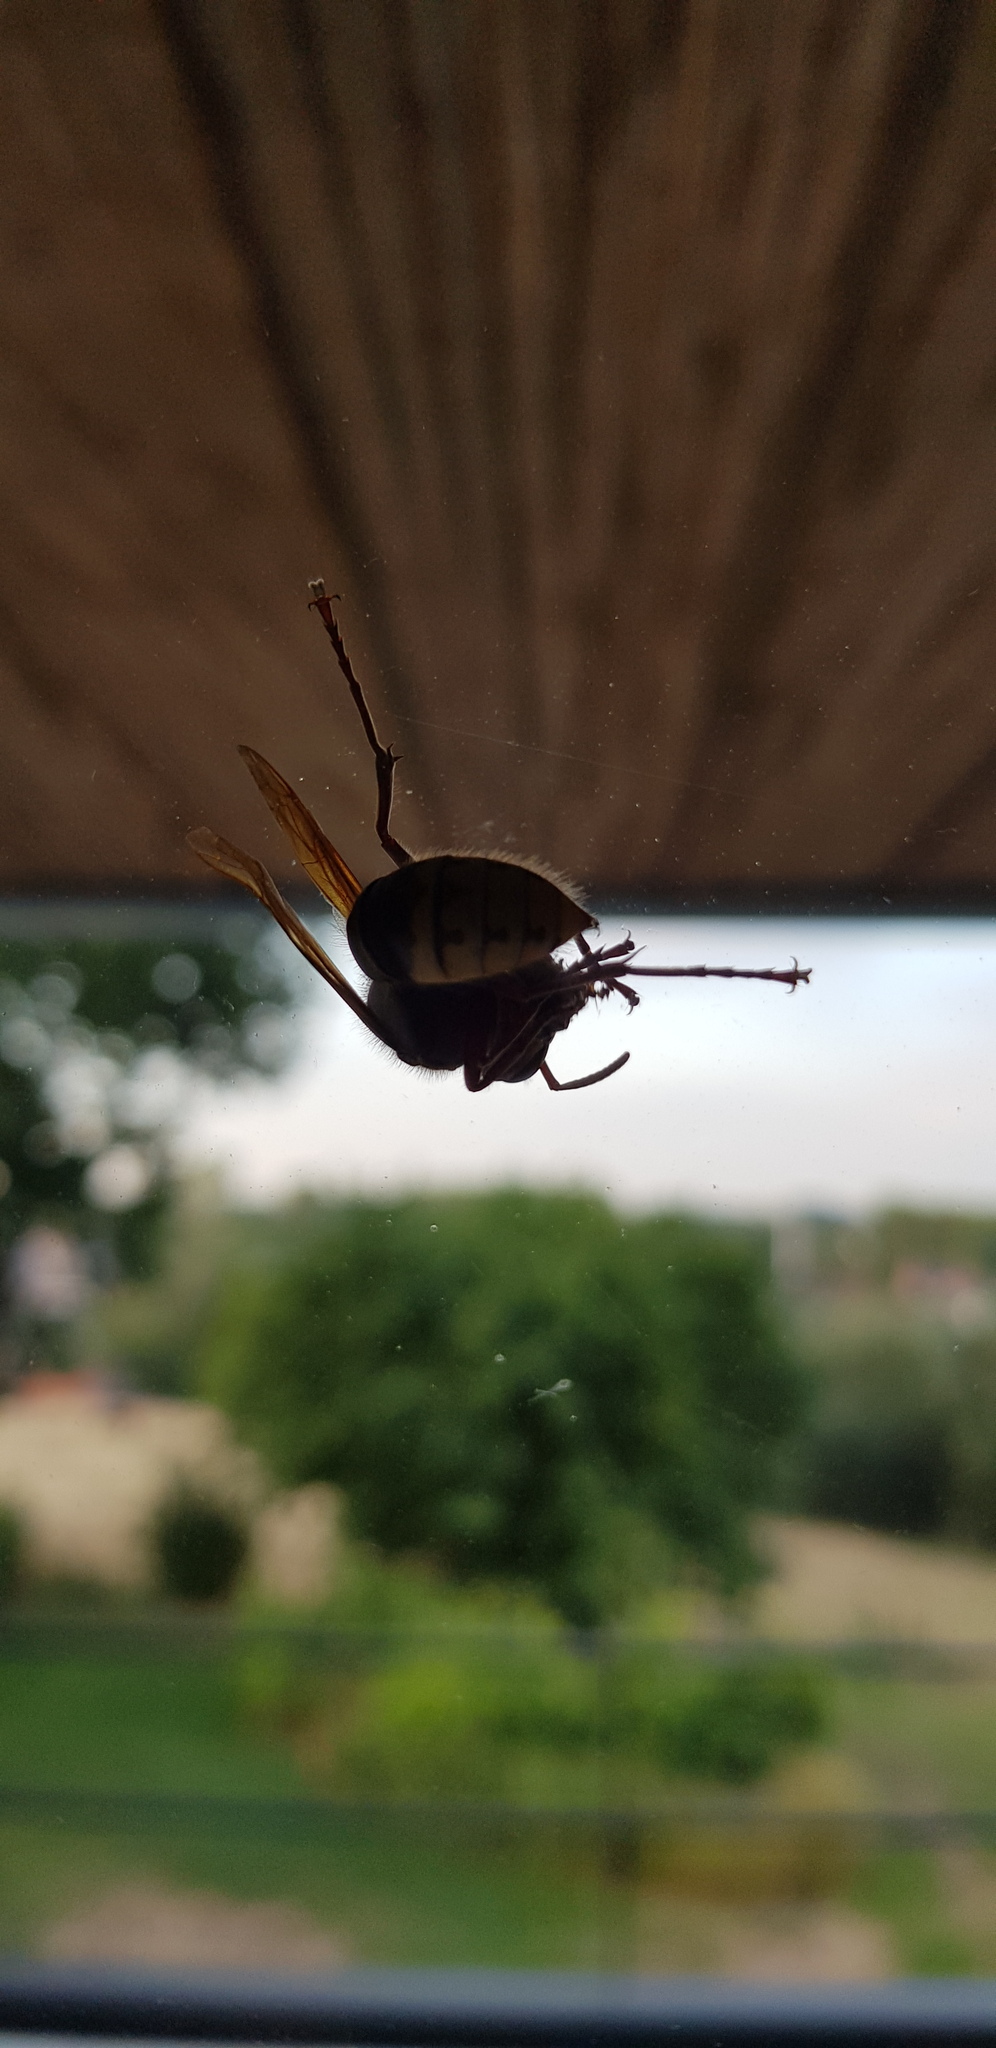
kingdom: Animalia
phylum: Arthropoda
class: Insecta
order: Hymenoptera
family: Vespidae
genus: Vespa
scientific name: Vespa crabro
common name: Hornet
